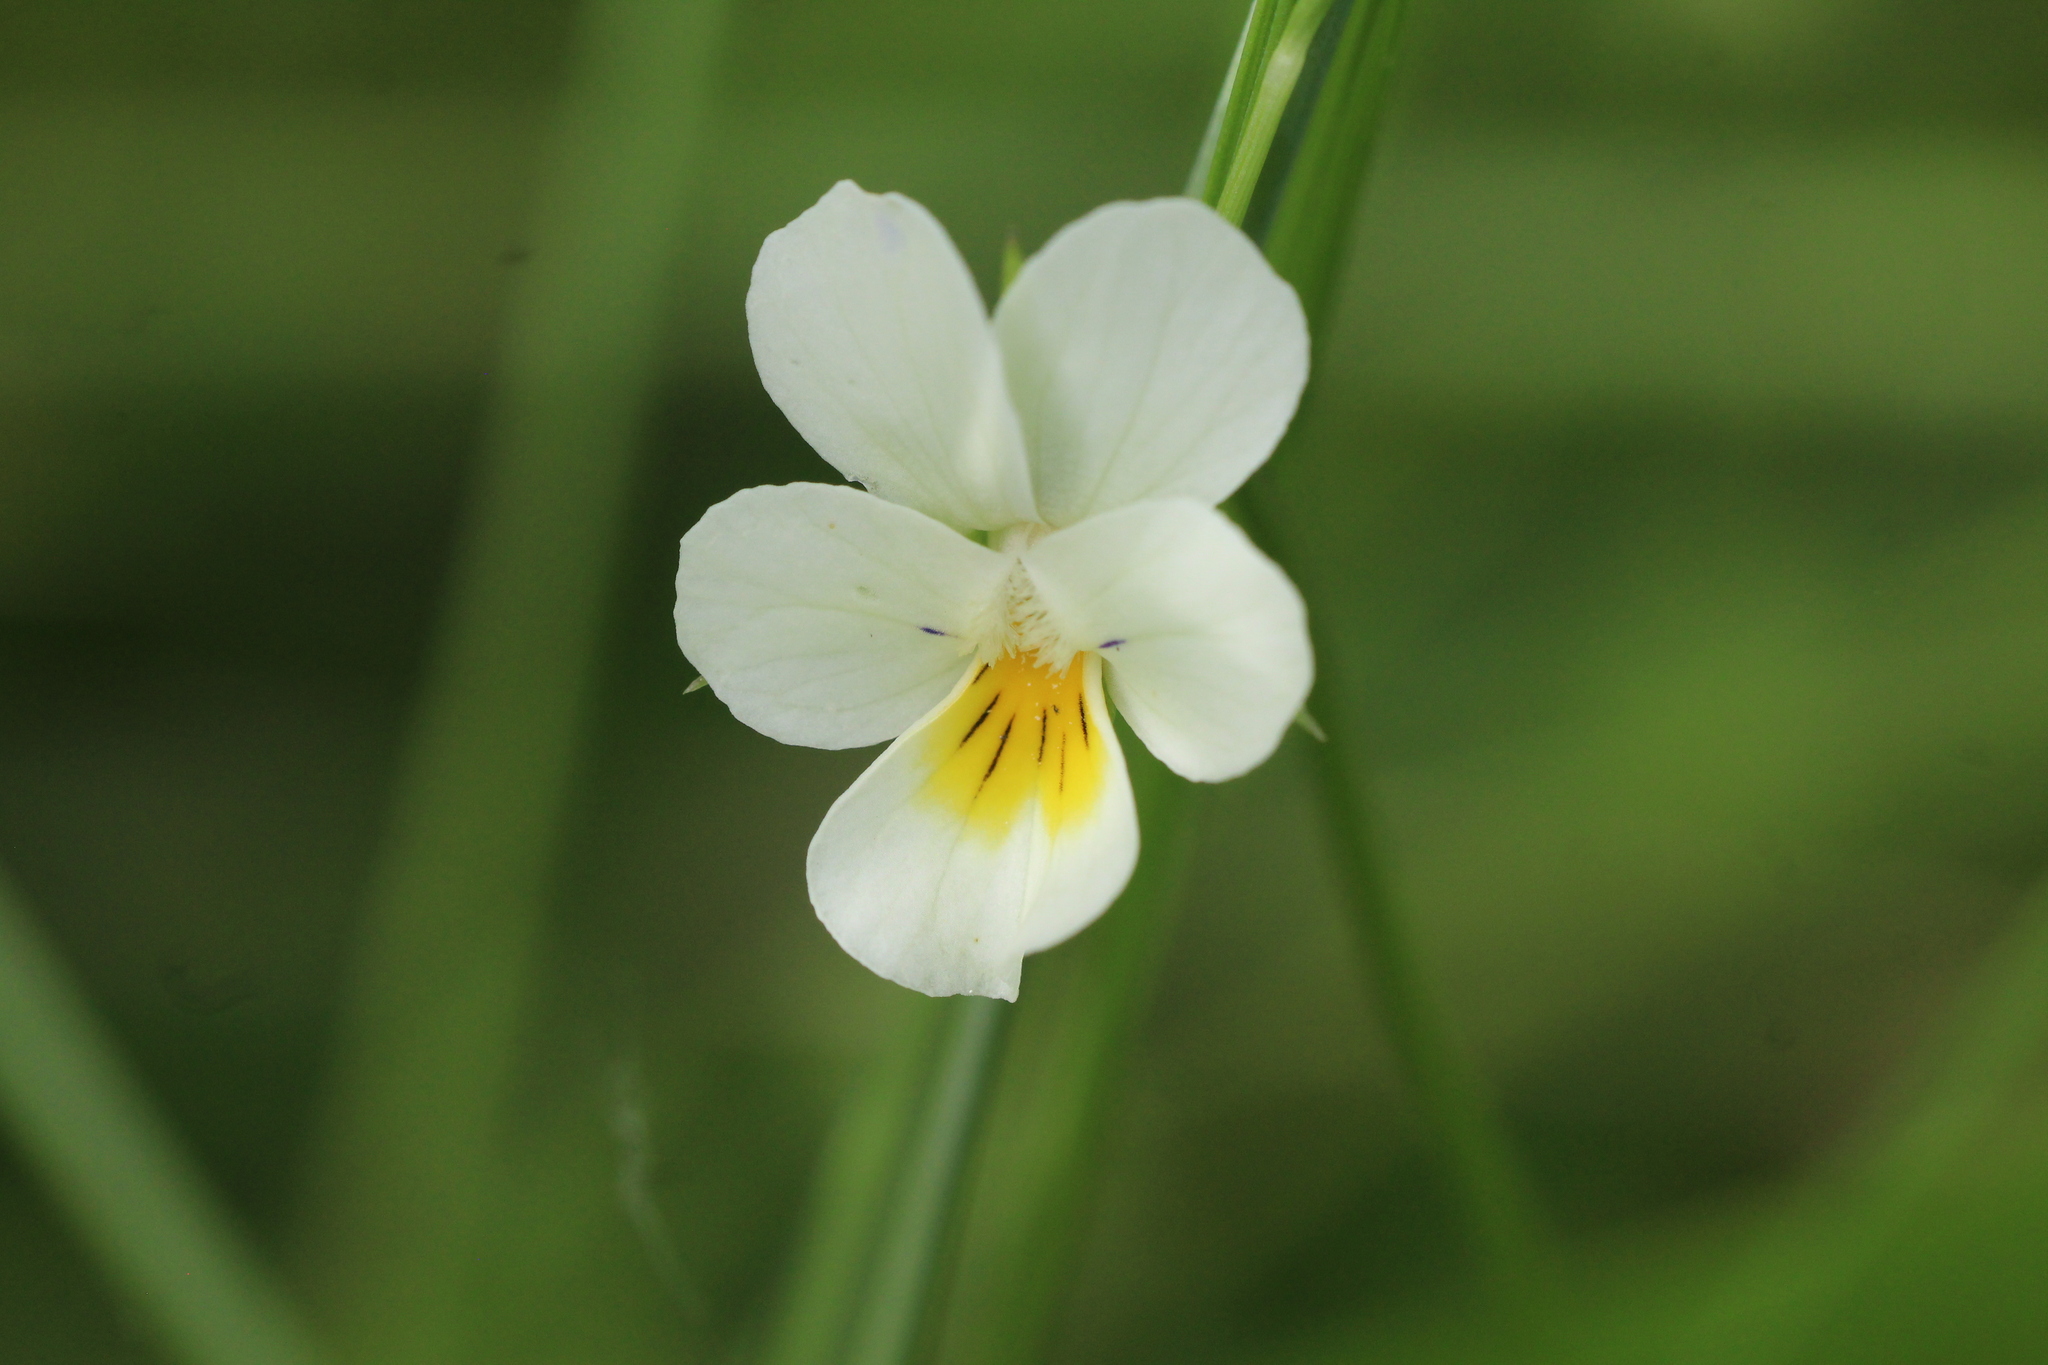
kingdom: Plantae
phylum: Tracheophyta
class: Magnoliopsida
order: Malpighiales
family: Violaceae
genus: Viola
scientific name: Viola arvensis
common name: Field pansy
